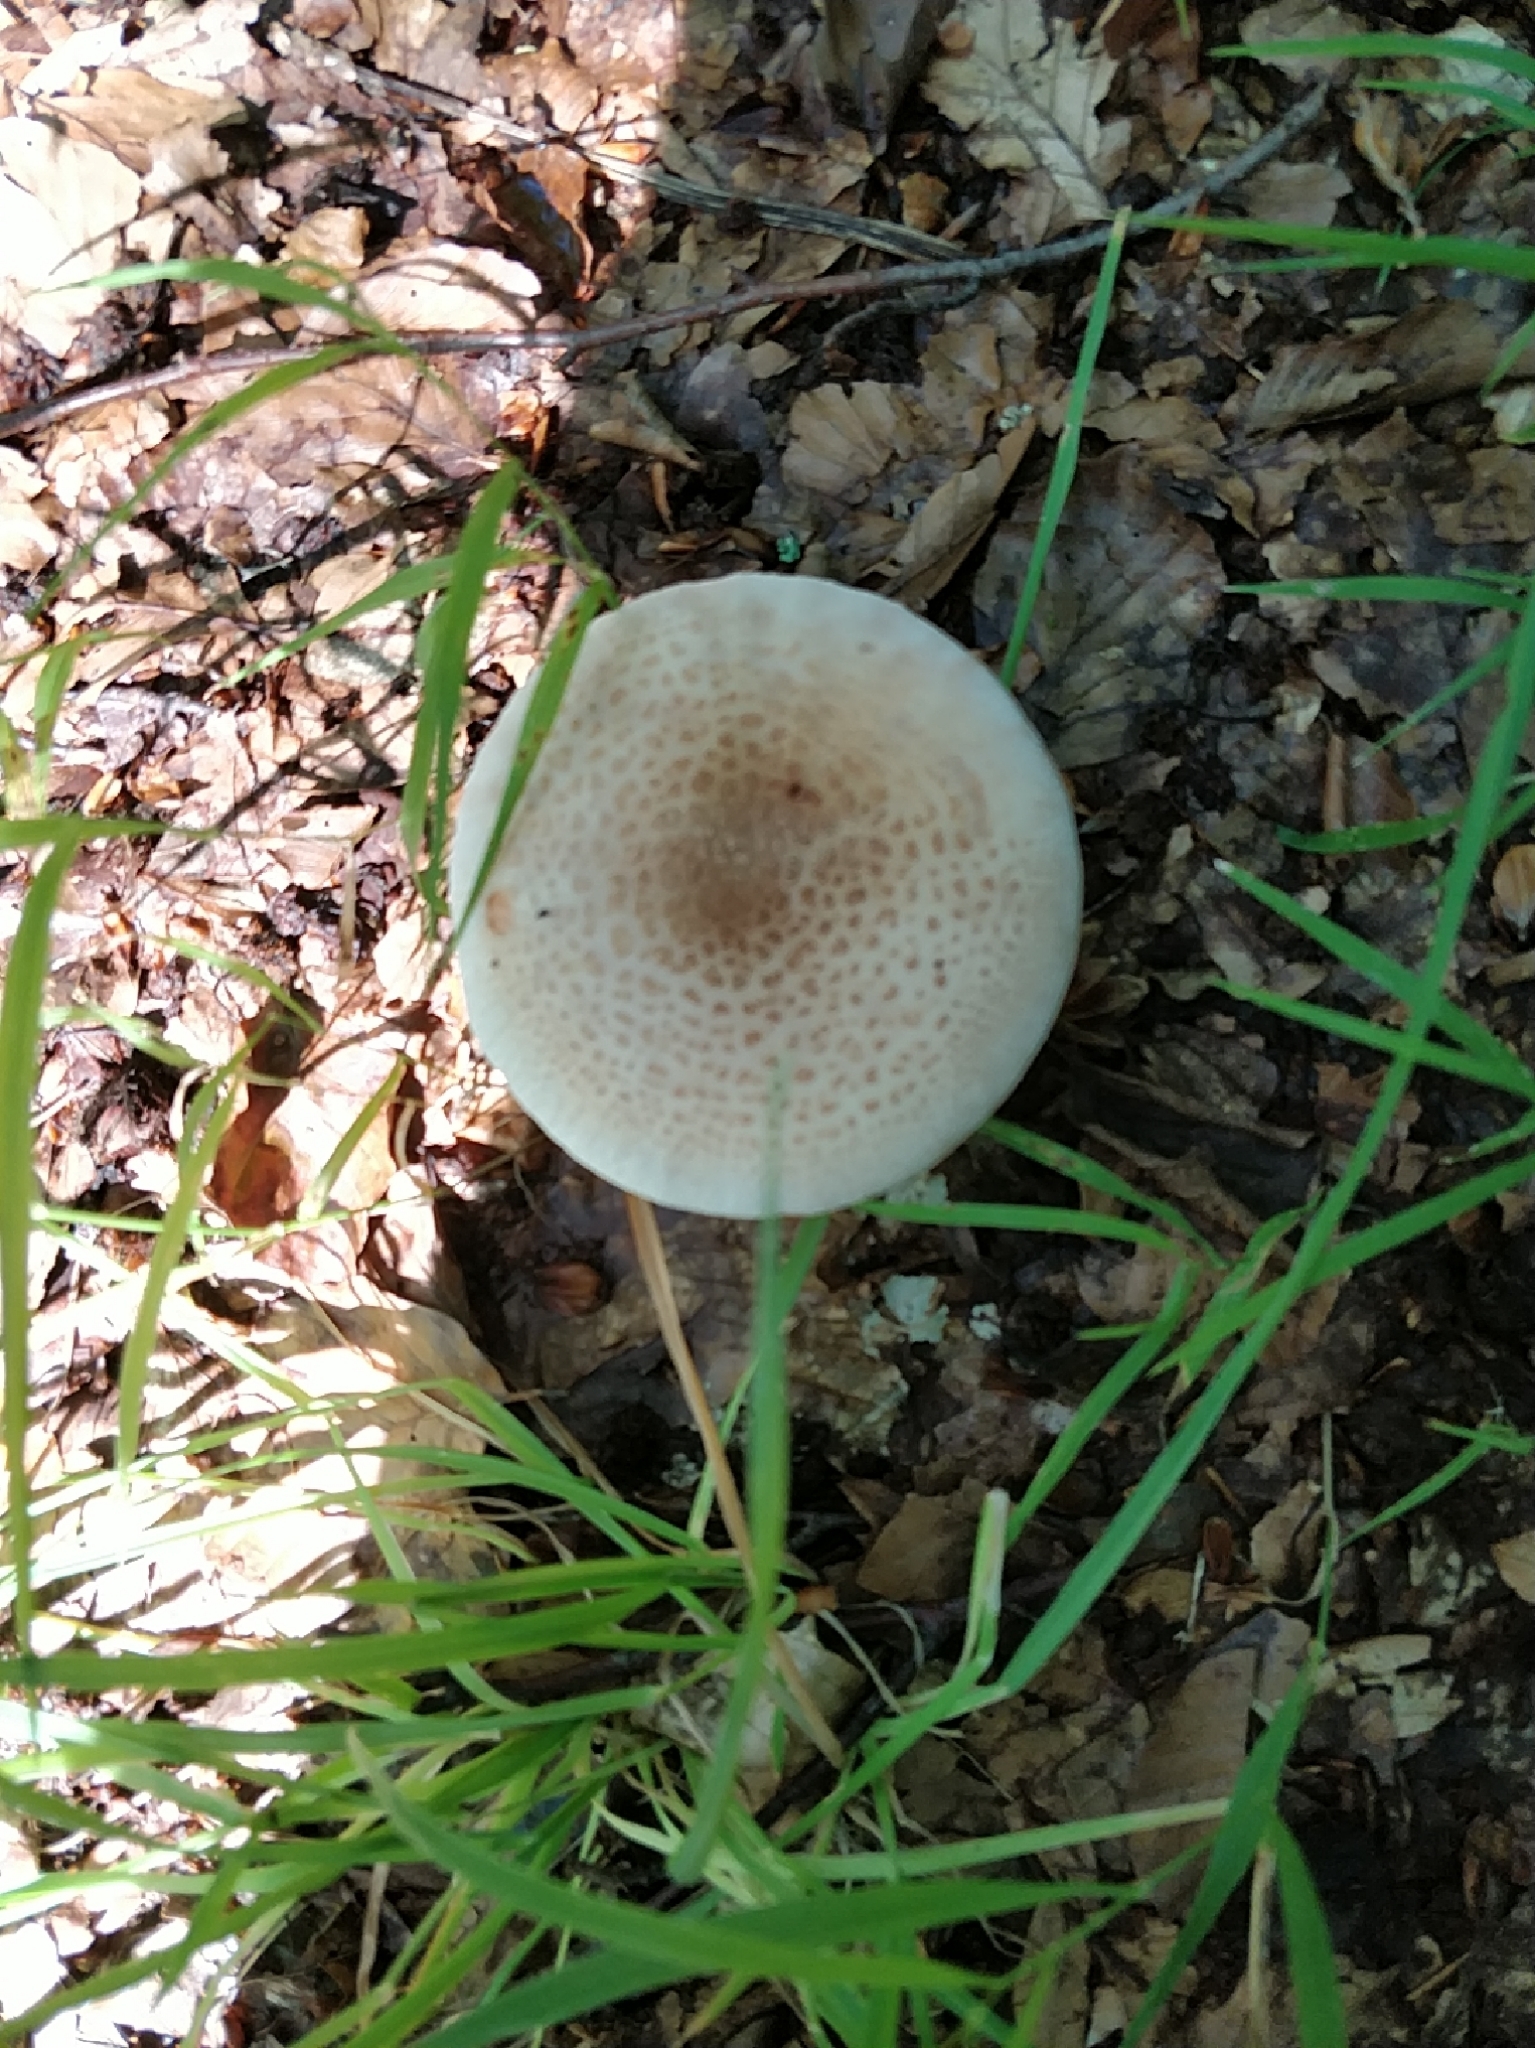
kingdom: Fungi
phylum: Basidiomycota
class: Agaricomycetes
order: Agaricales
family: Amanitaceae
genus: Amanita
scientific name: Amanita rubescens
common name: Blusher
